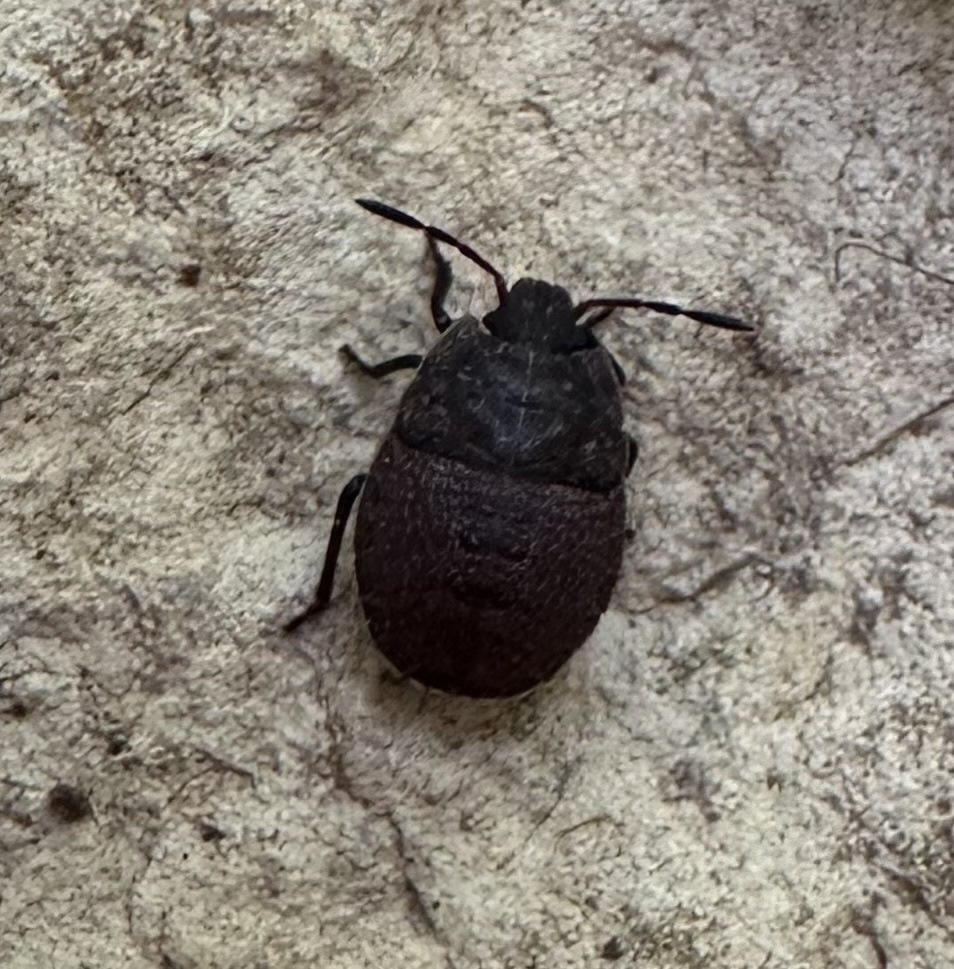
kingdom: Animalia
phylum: Arthropoda
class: Insecta
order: Hemiptera
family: Pentatomidae
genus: Menecles
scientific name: Menecles insertus
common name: Elf shoe stink bug
